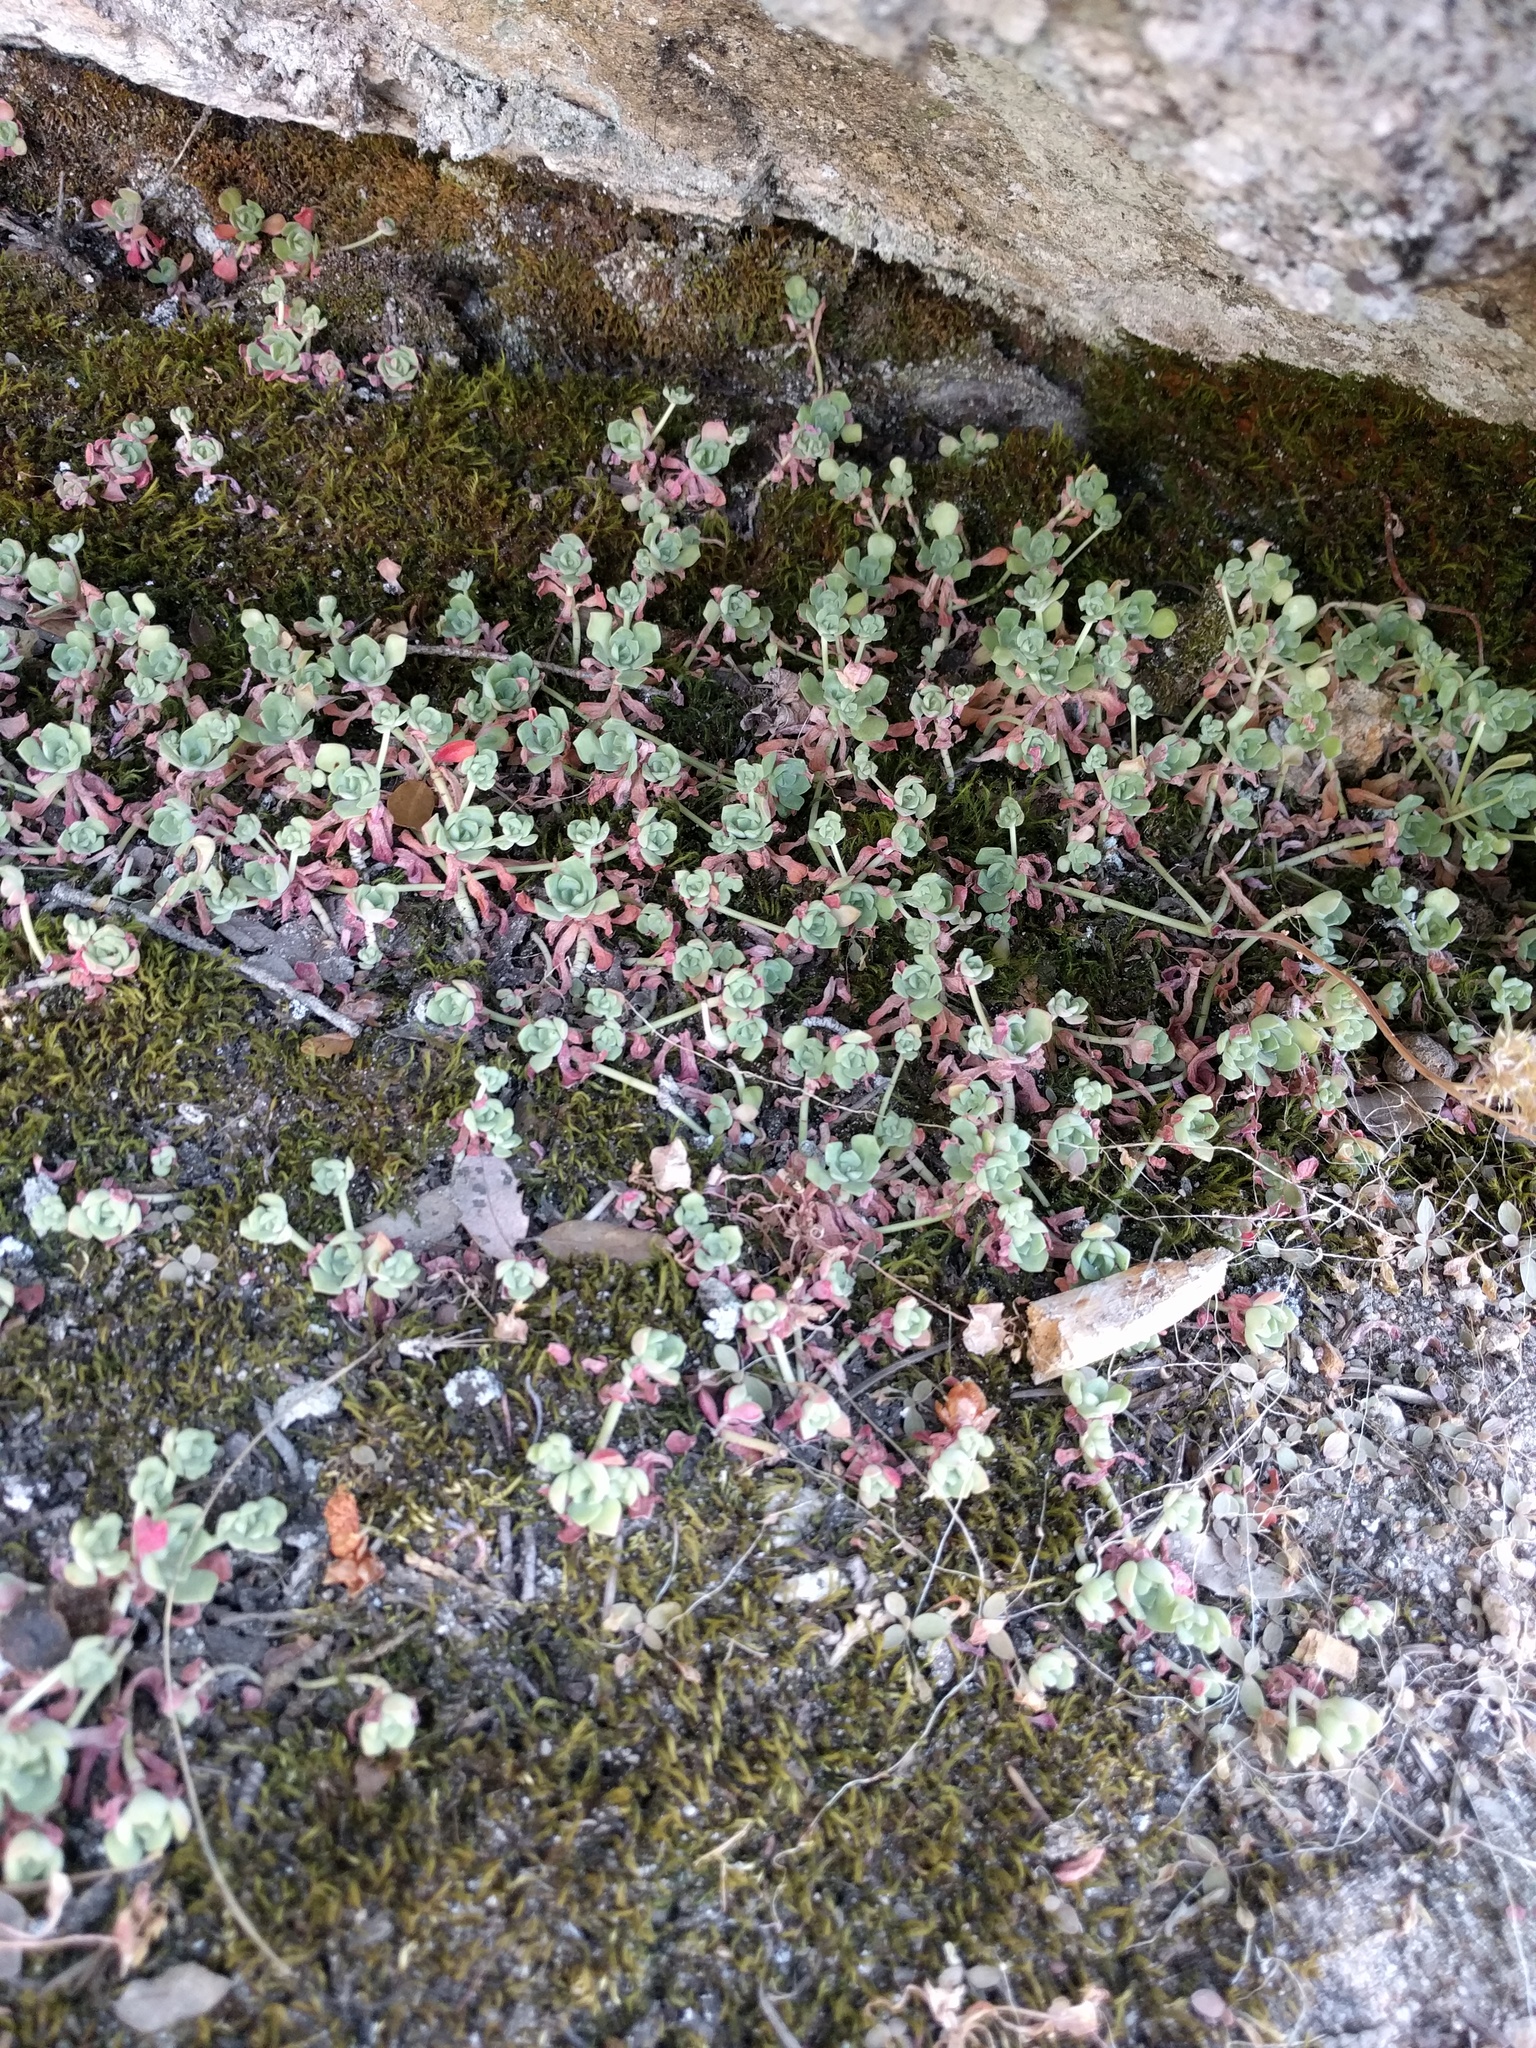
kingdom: Plantae
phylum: Tracheophyta
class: Magnoliopsida
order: Saxifragales
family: Crassulaceae
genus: Sedum
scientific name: Sedum spathulifolium
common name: Colorado stonecrop
